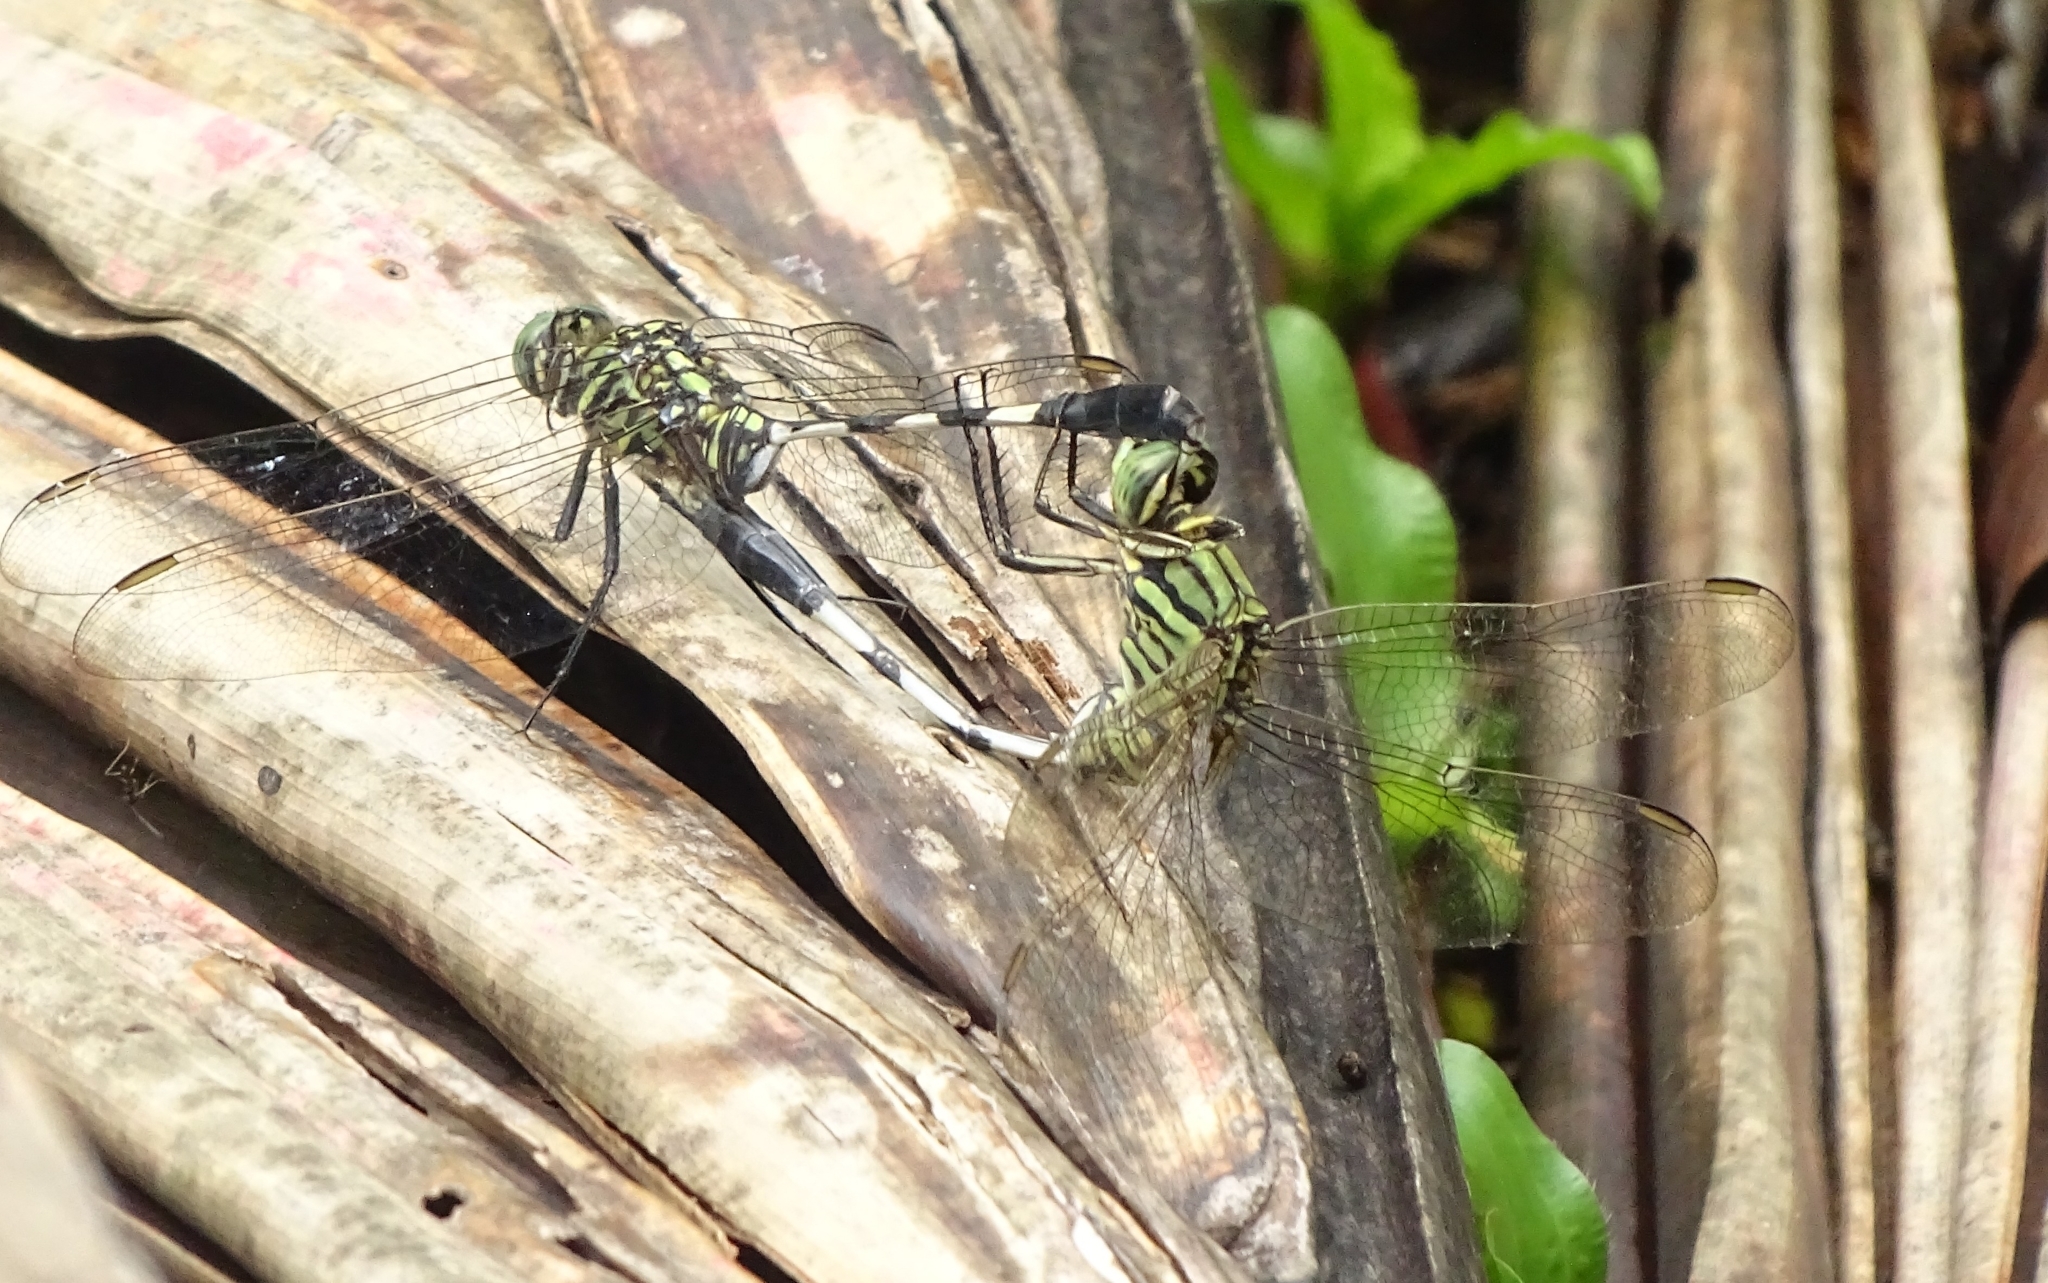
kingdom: Animalia
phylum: Arthropoda
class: Insecta
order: Odonata
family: Libellulidae
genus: Orthetrum
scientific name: Orthetrum sabina
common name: Slender skimmer
